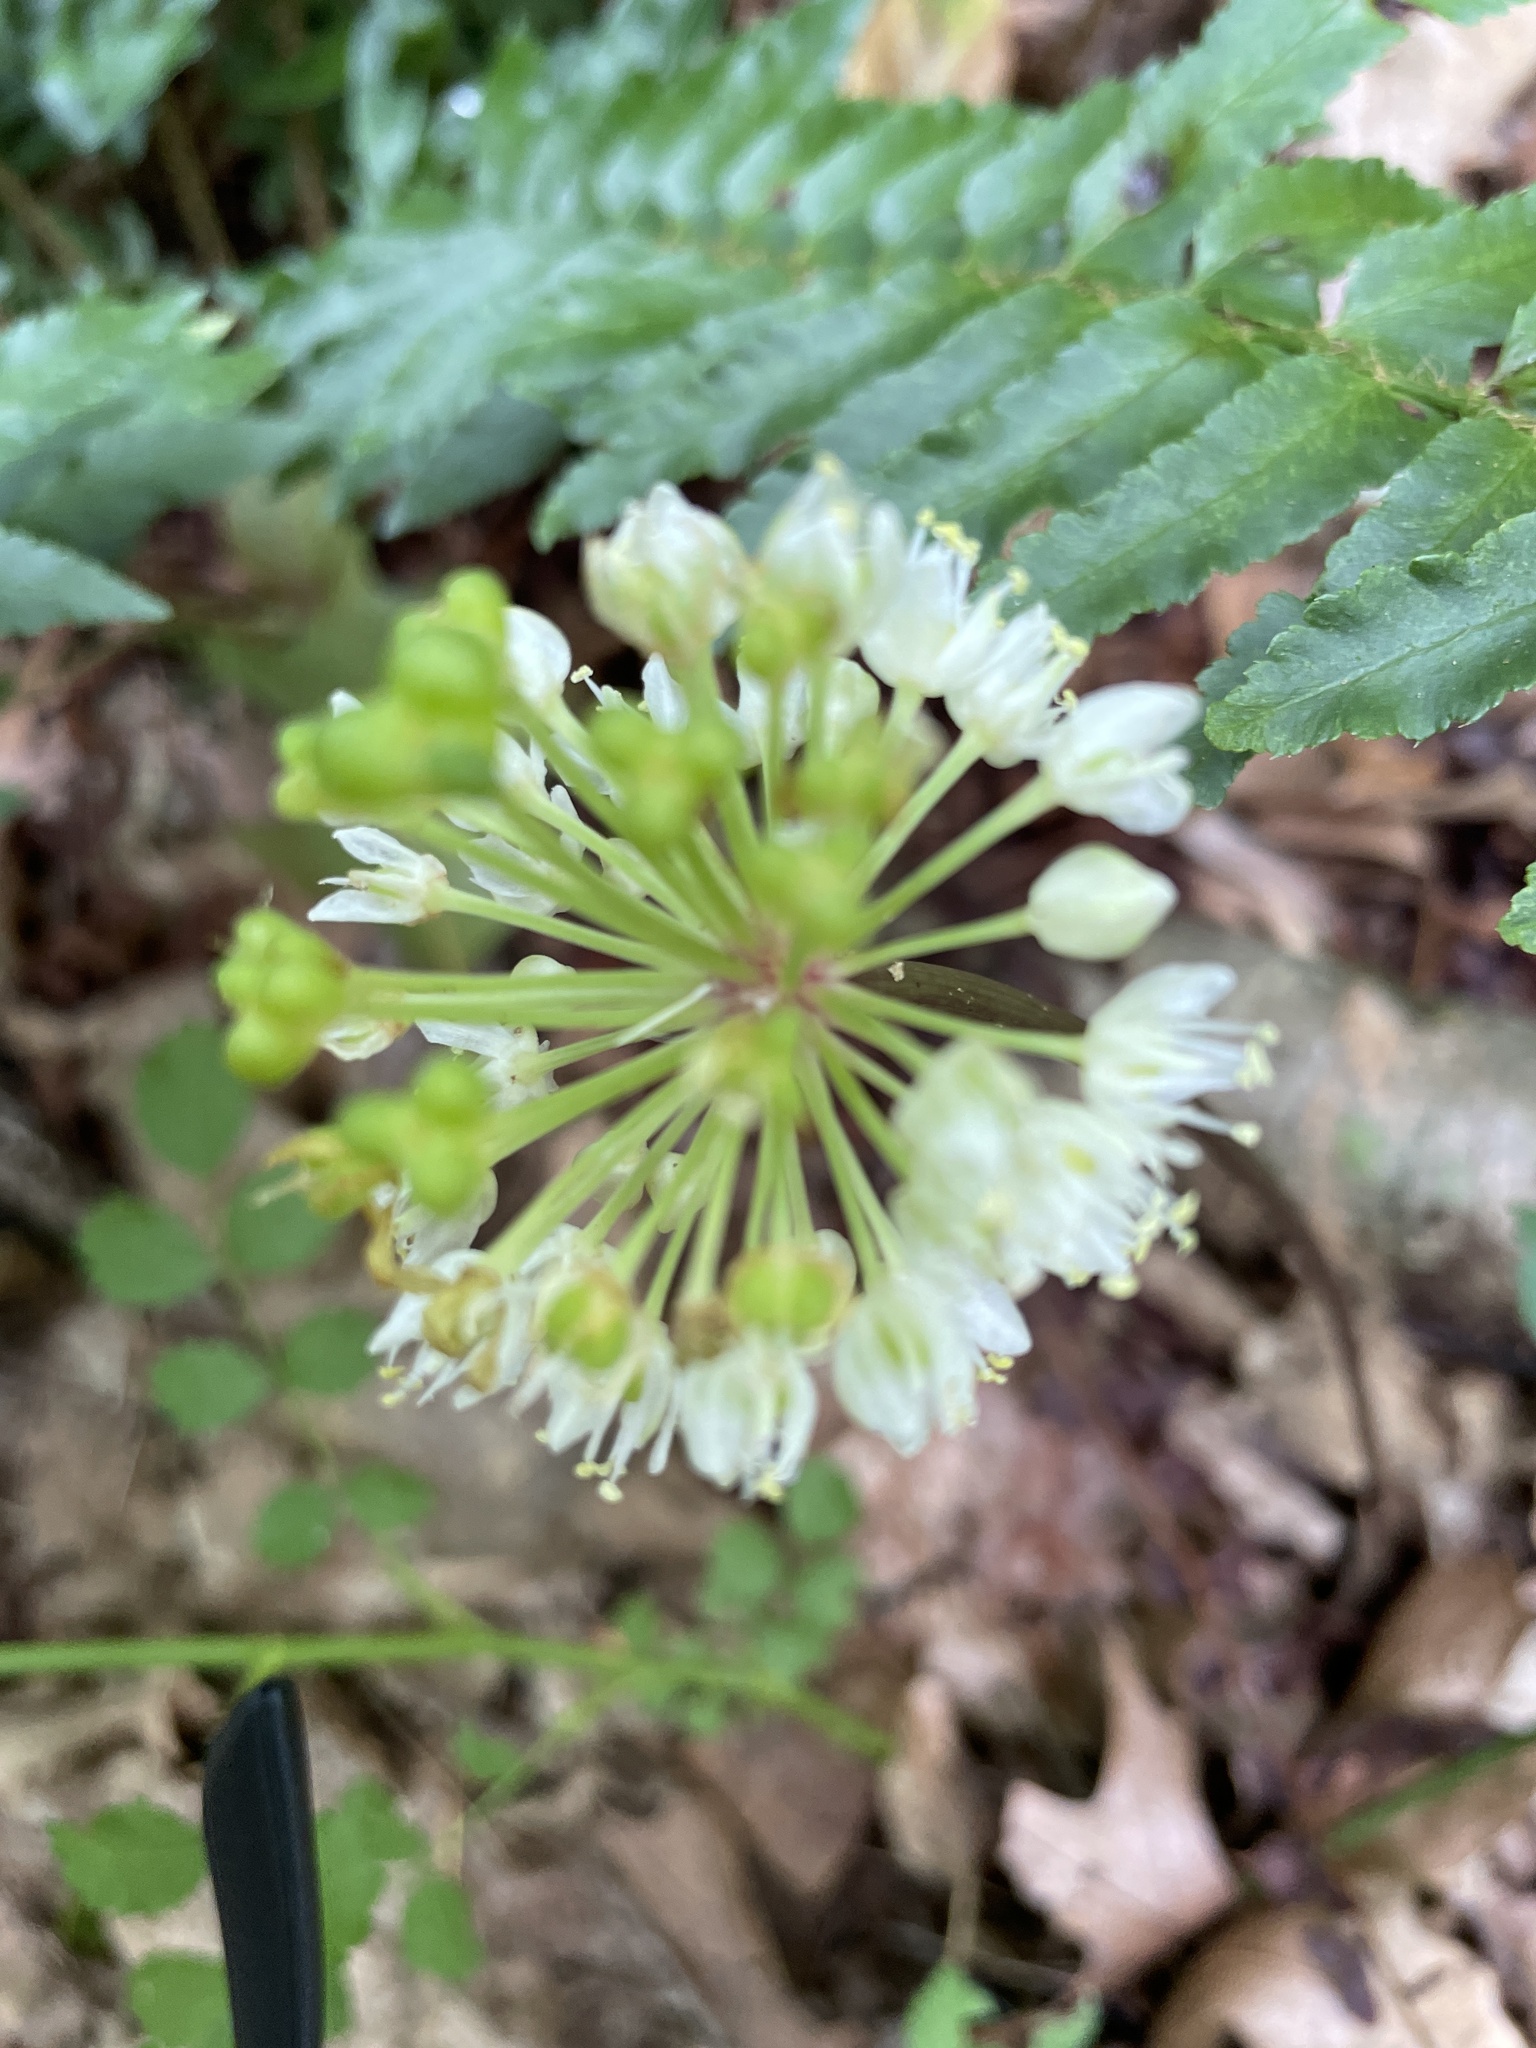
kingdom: Plantae
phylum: Tracheophyta
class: Liliopsida
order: Asparagales
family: Amaryllidaceae
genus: Allium
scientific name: Allium tricoccum
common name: Ramp
